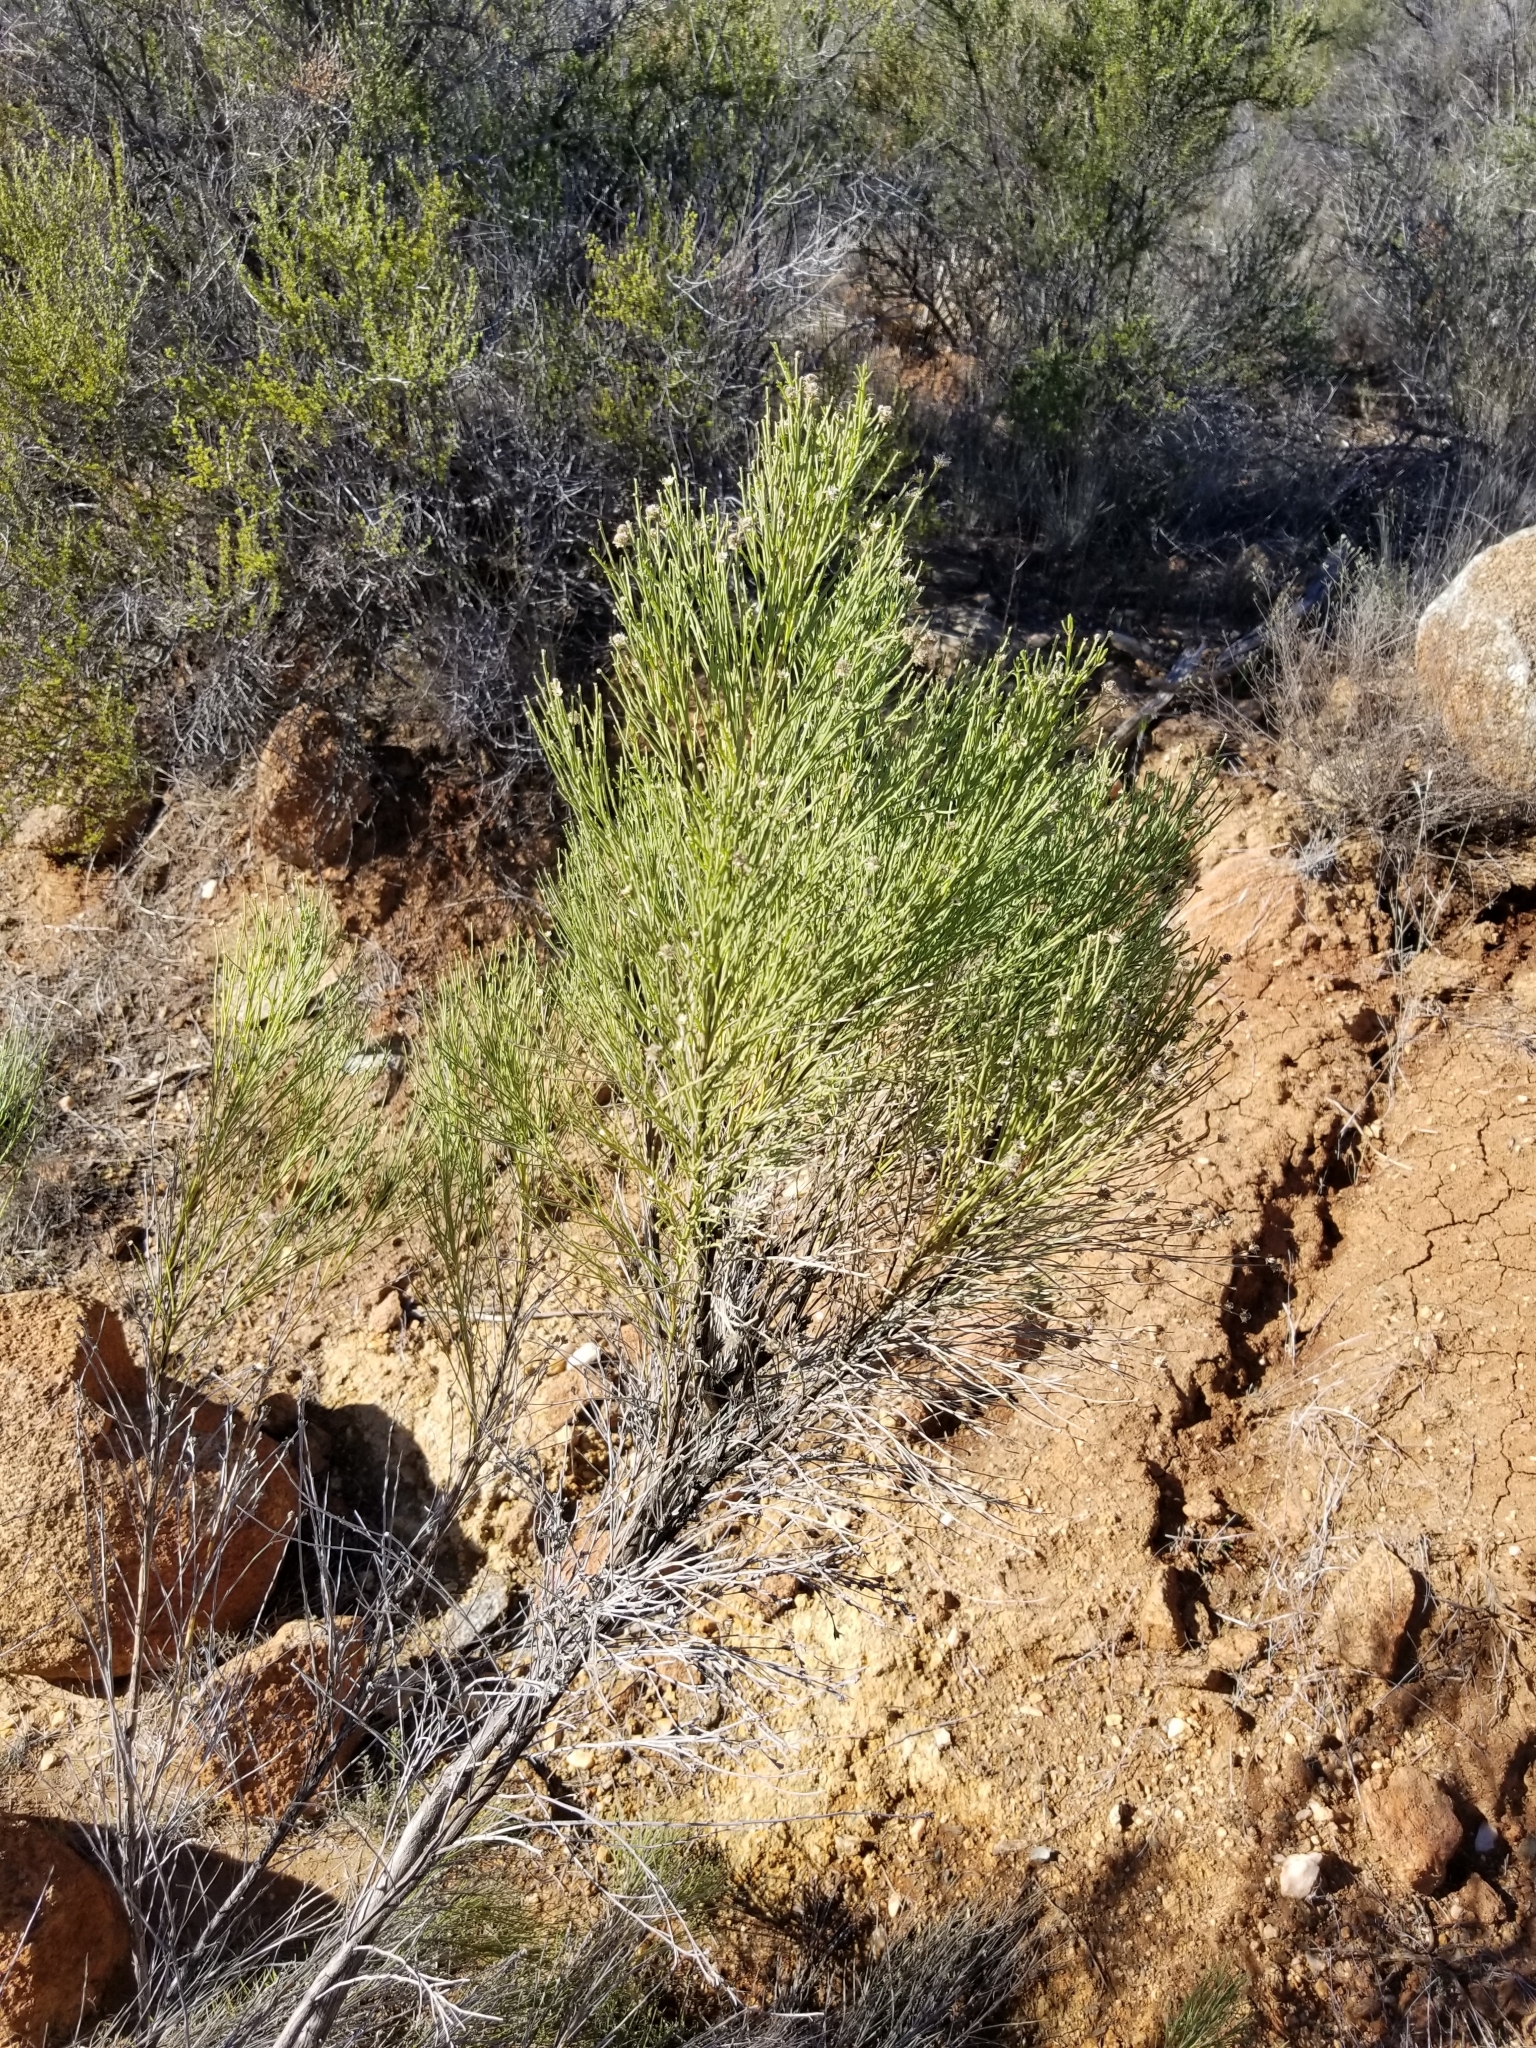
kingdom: Plantae
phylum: Tracheophyta
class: Magnoliopsida
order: Asterales
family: Asteraceae
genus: Baccharis
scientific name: Baccharis sarothroides
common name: Desert-broom
